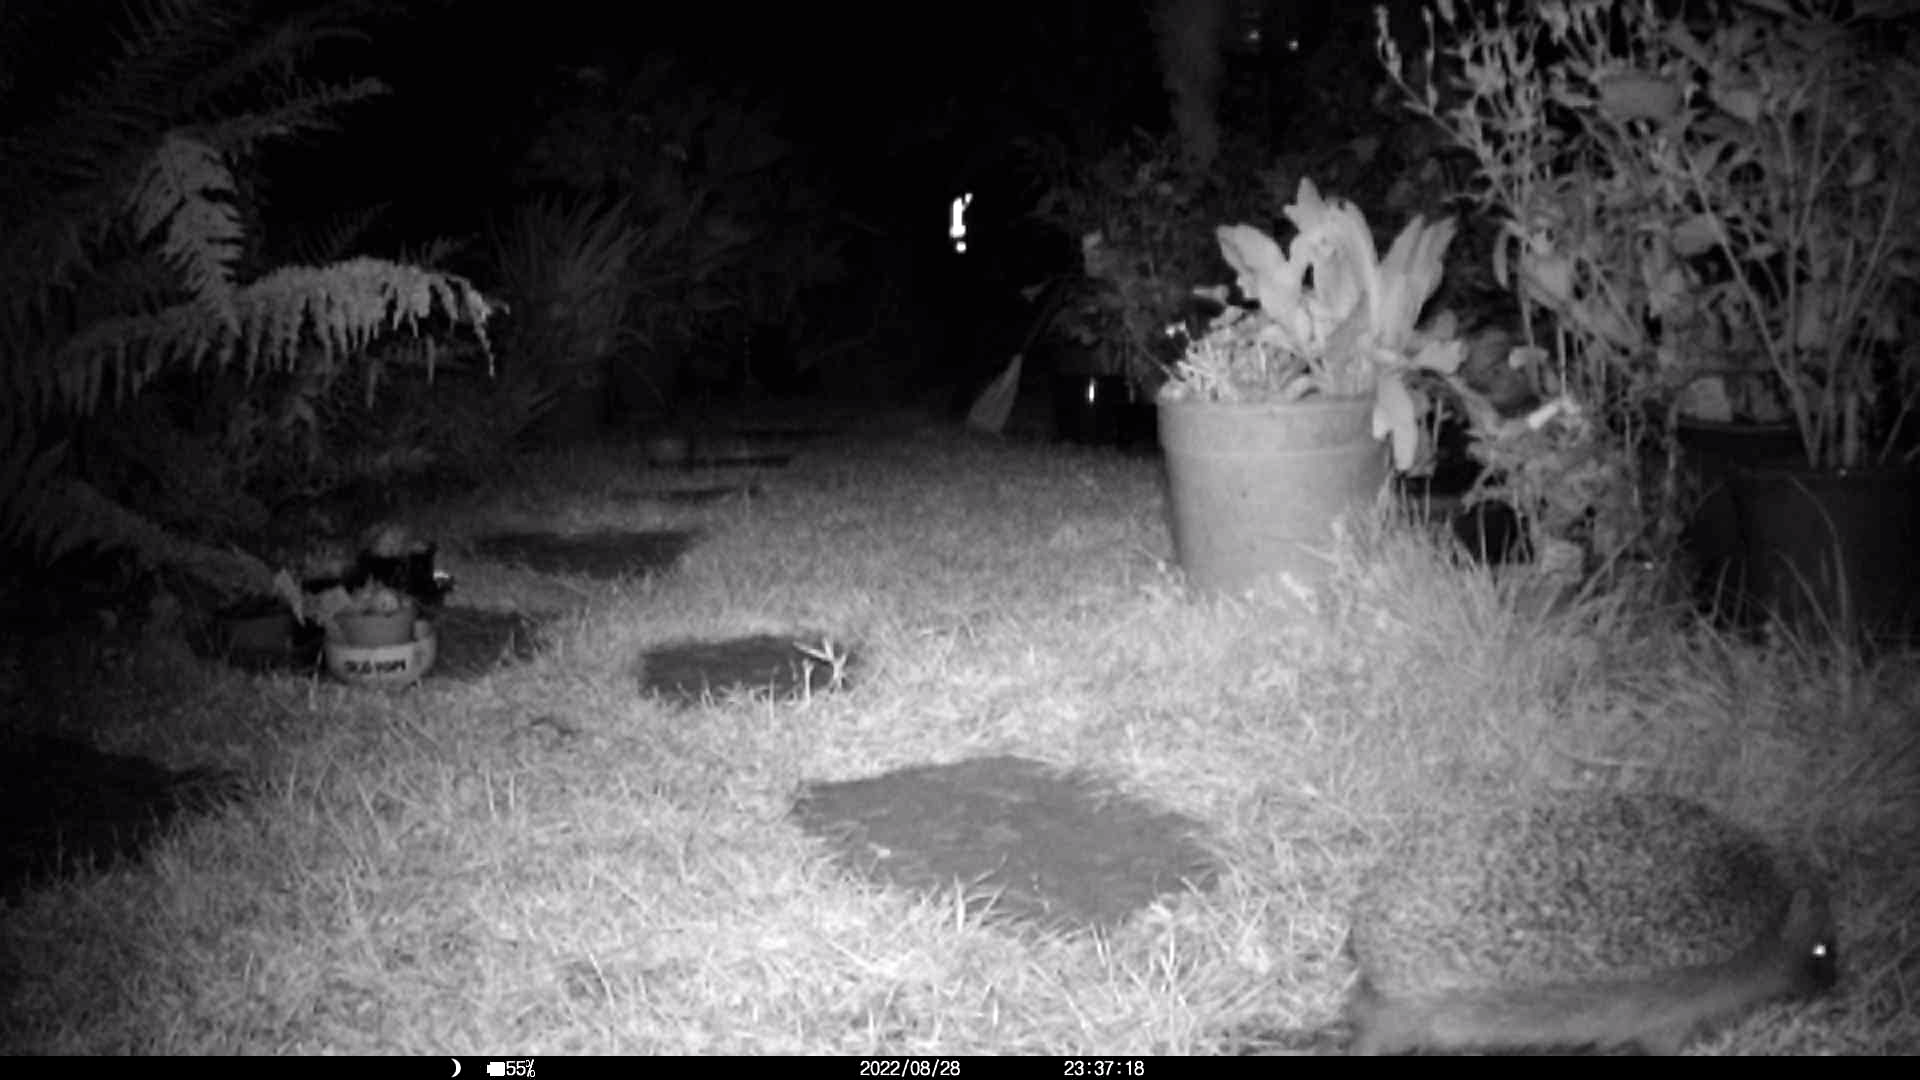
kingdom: Animalia
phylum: Chordata
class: Mammalia
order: Erinaceomorpha
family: Erinaceidae
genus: Erinaceus
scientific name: Erinaceus europaeus
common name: West european hedgehog
